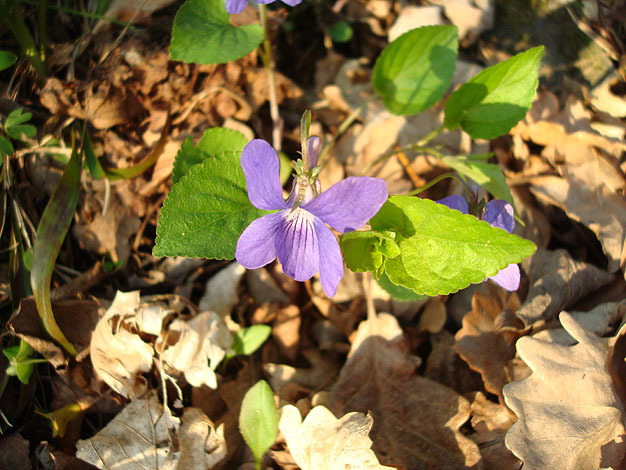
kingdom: Plantae
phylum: Tracheophyta
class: Magnoliopsida
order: Malpighiales
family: Violaceae
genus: Viola
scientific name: Viola riviniana
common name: Common dog-violet
